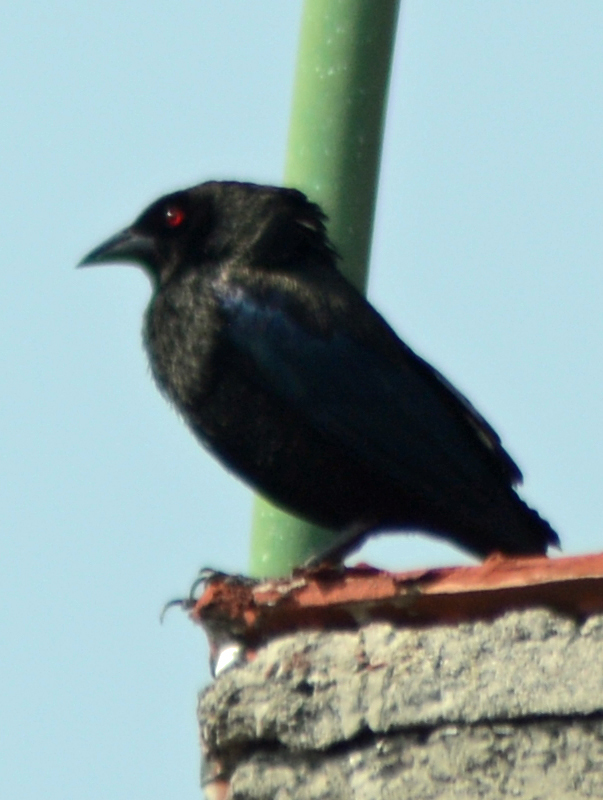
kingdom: Animalia
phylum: Chordata
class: Aves
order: Passeriformes
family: Icteridae
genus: Molothrus
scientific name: Molothrus aeneus
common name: Bronzed cowbird
